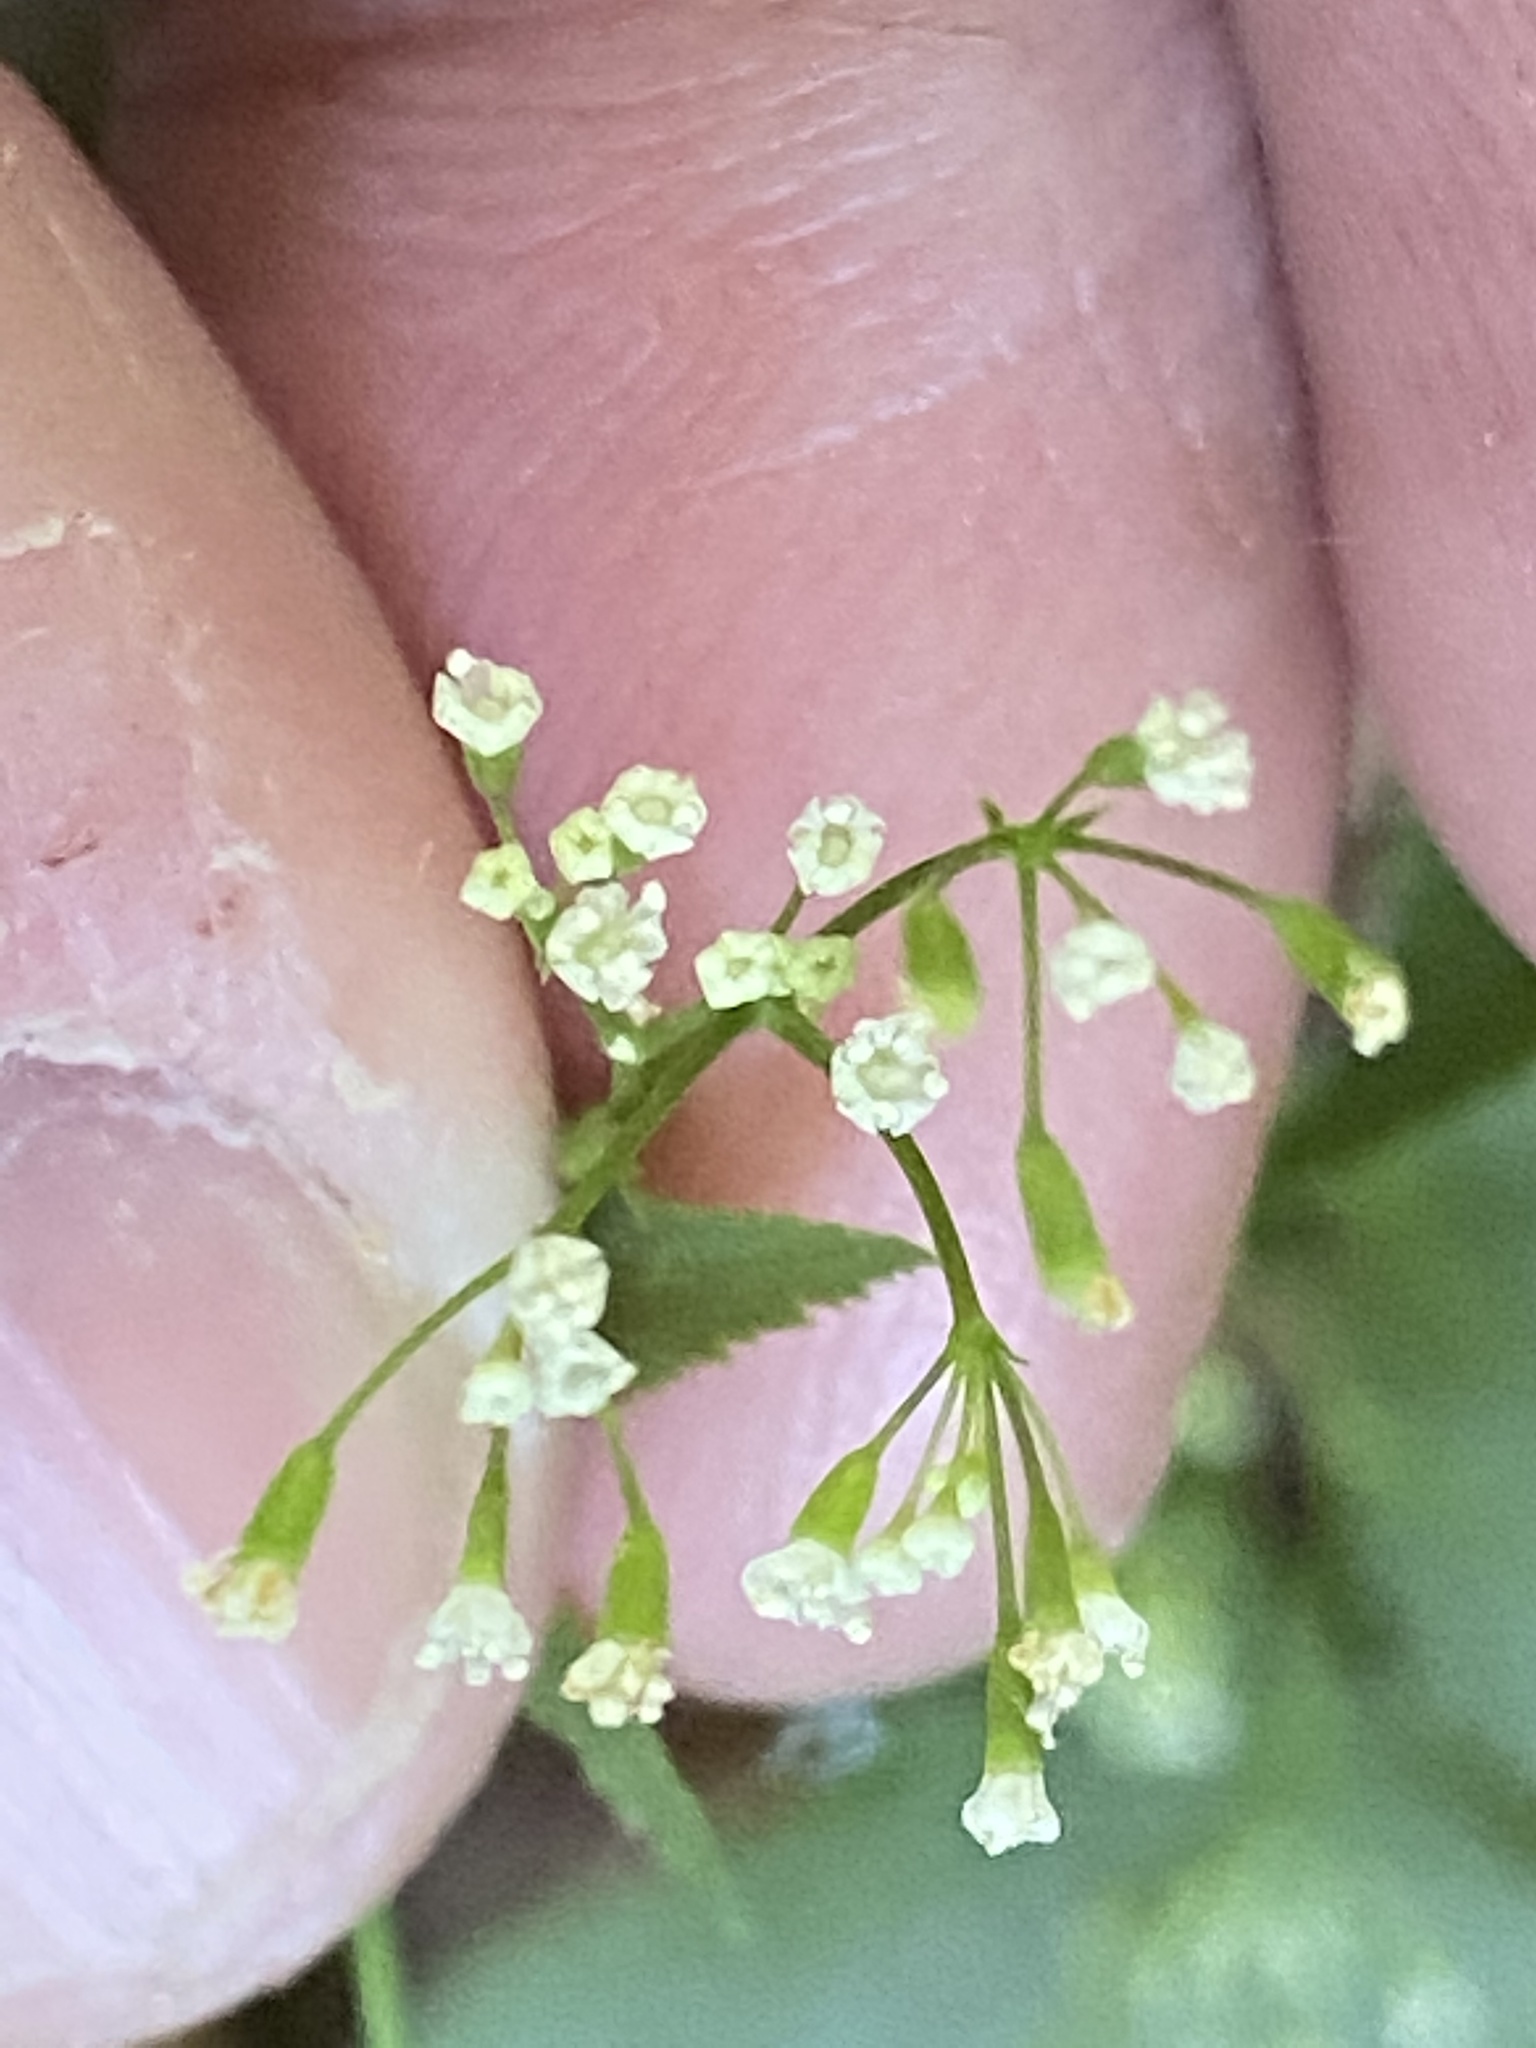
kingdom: Plantae
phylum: Tracheophyta
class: Magnoliopsida
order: Apiales
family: Apiaceae
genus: Cryptotaenia
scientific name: Cryptotaenia canadensis
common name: Honewort
